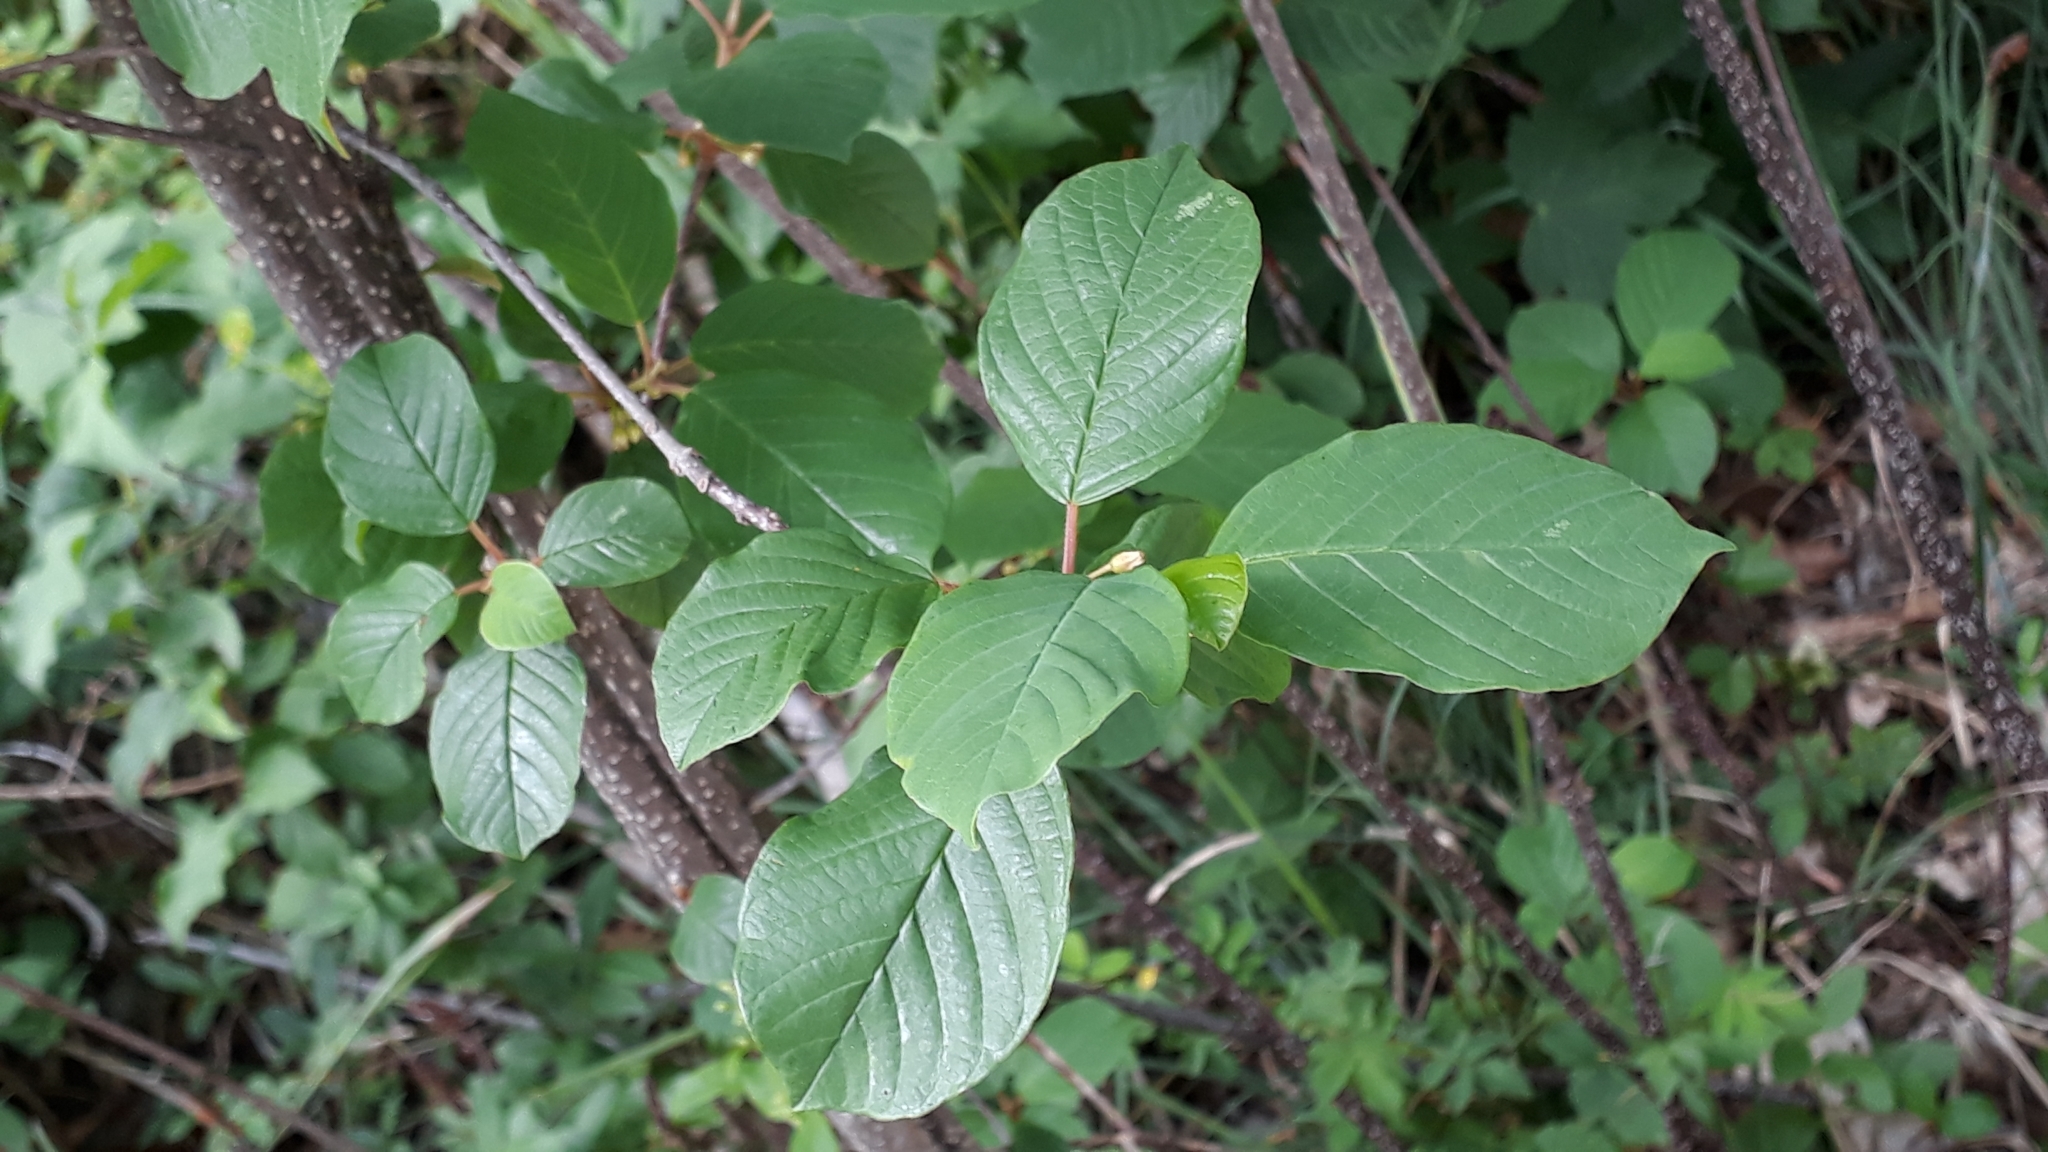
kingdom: Plantae
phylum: Tracheophyta
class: Magnoliopsida
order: Rosales
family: Rhamnaceae
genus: Frangula
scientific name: Frangula alnus
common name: Alder buckthorn
